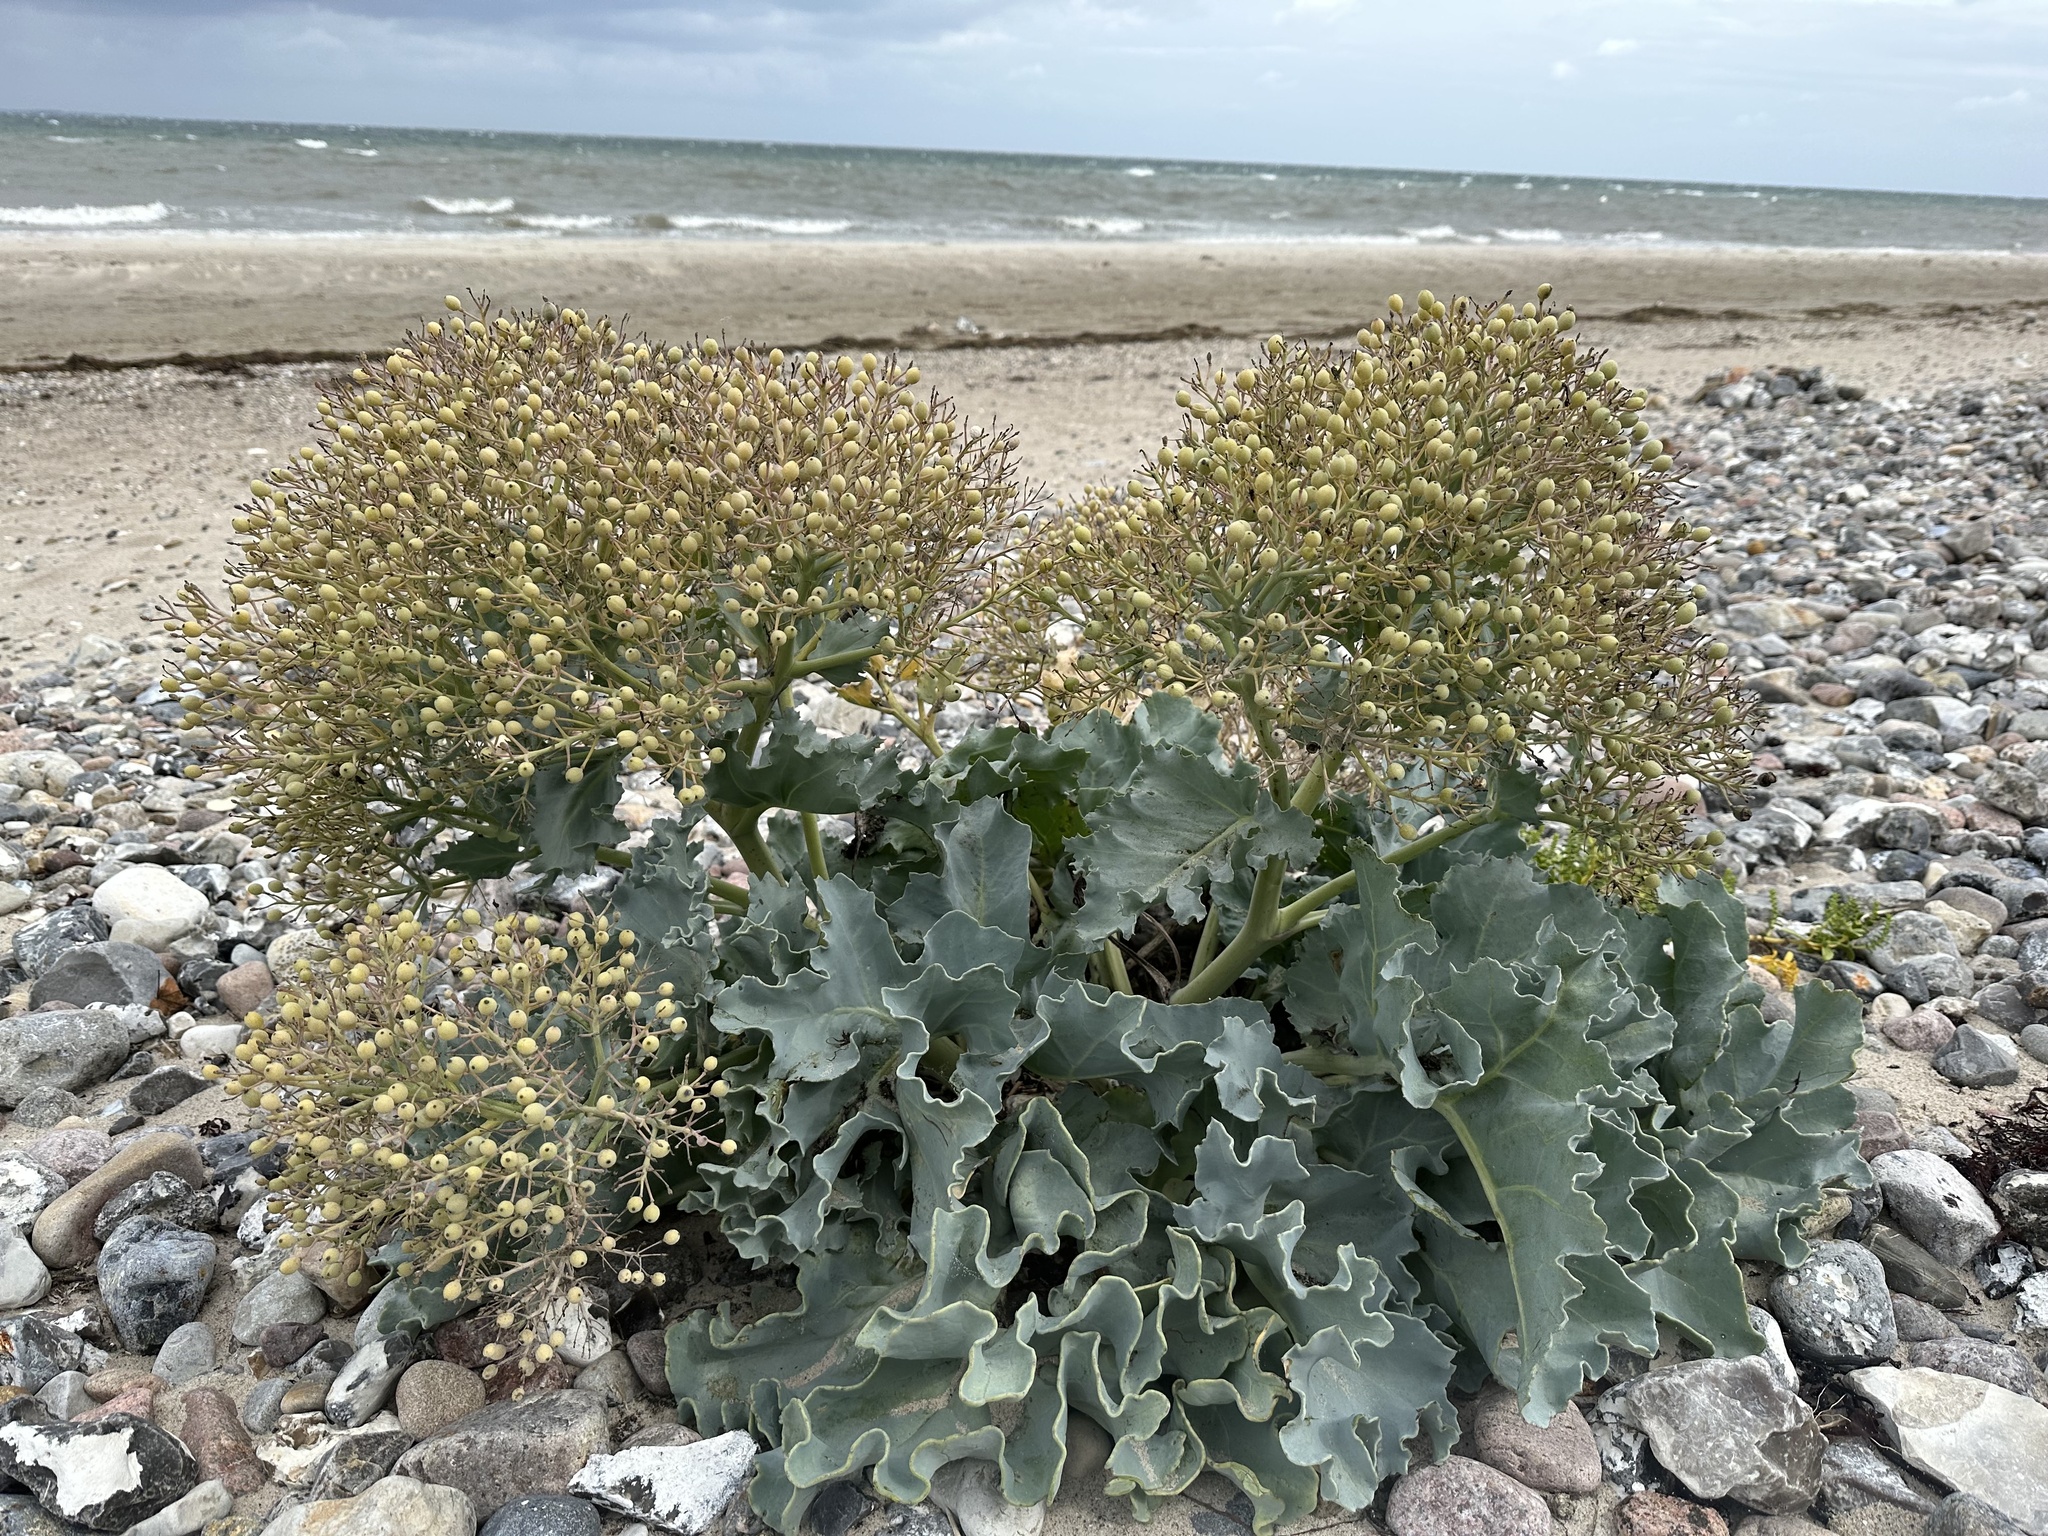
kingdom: Plantae
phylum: Tracheophyta
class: Magnoliopsida
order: Brassicales
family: Brassicaceae
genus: Crambe
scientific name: Crambe maritima
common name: Sea-kale
